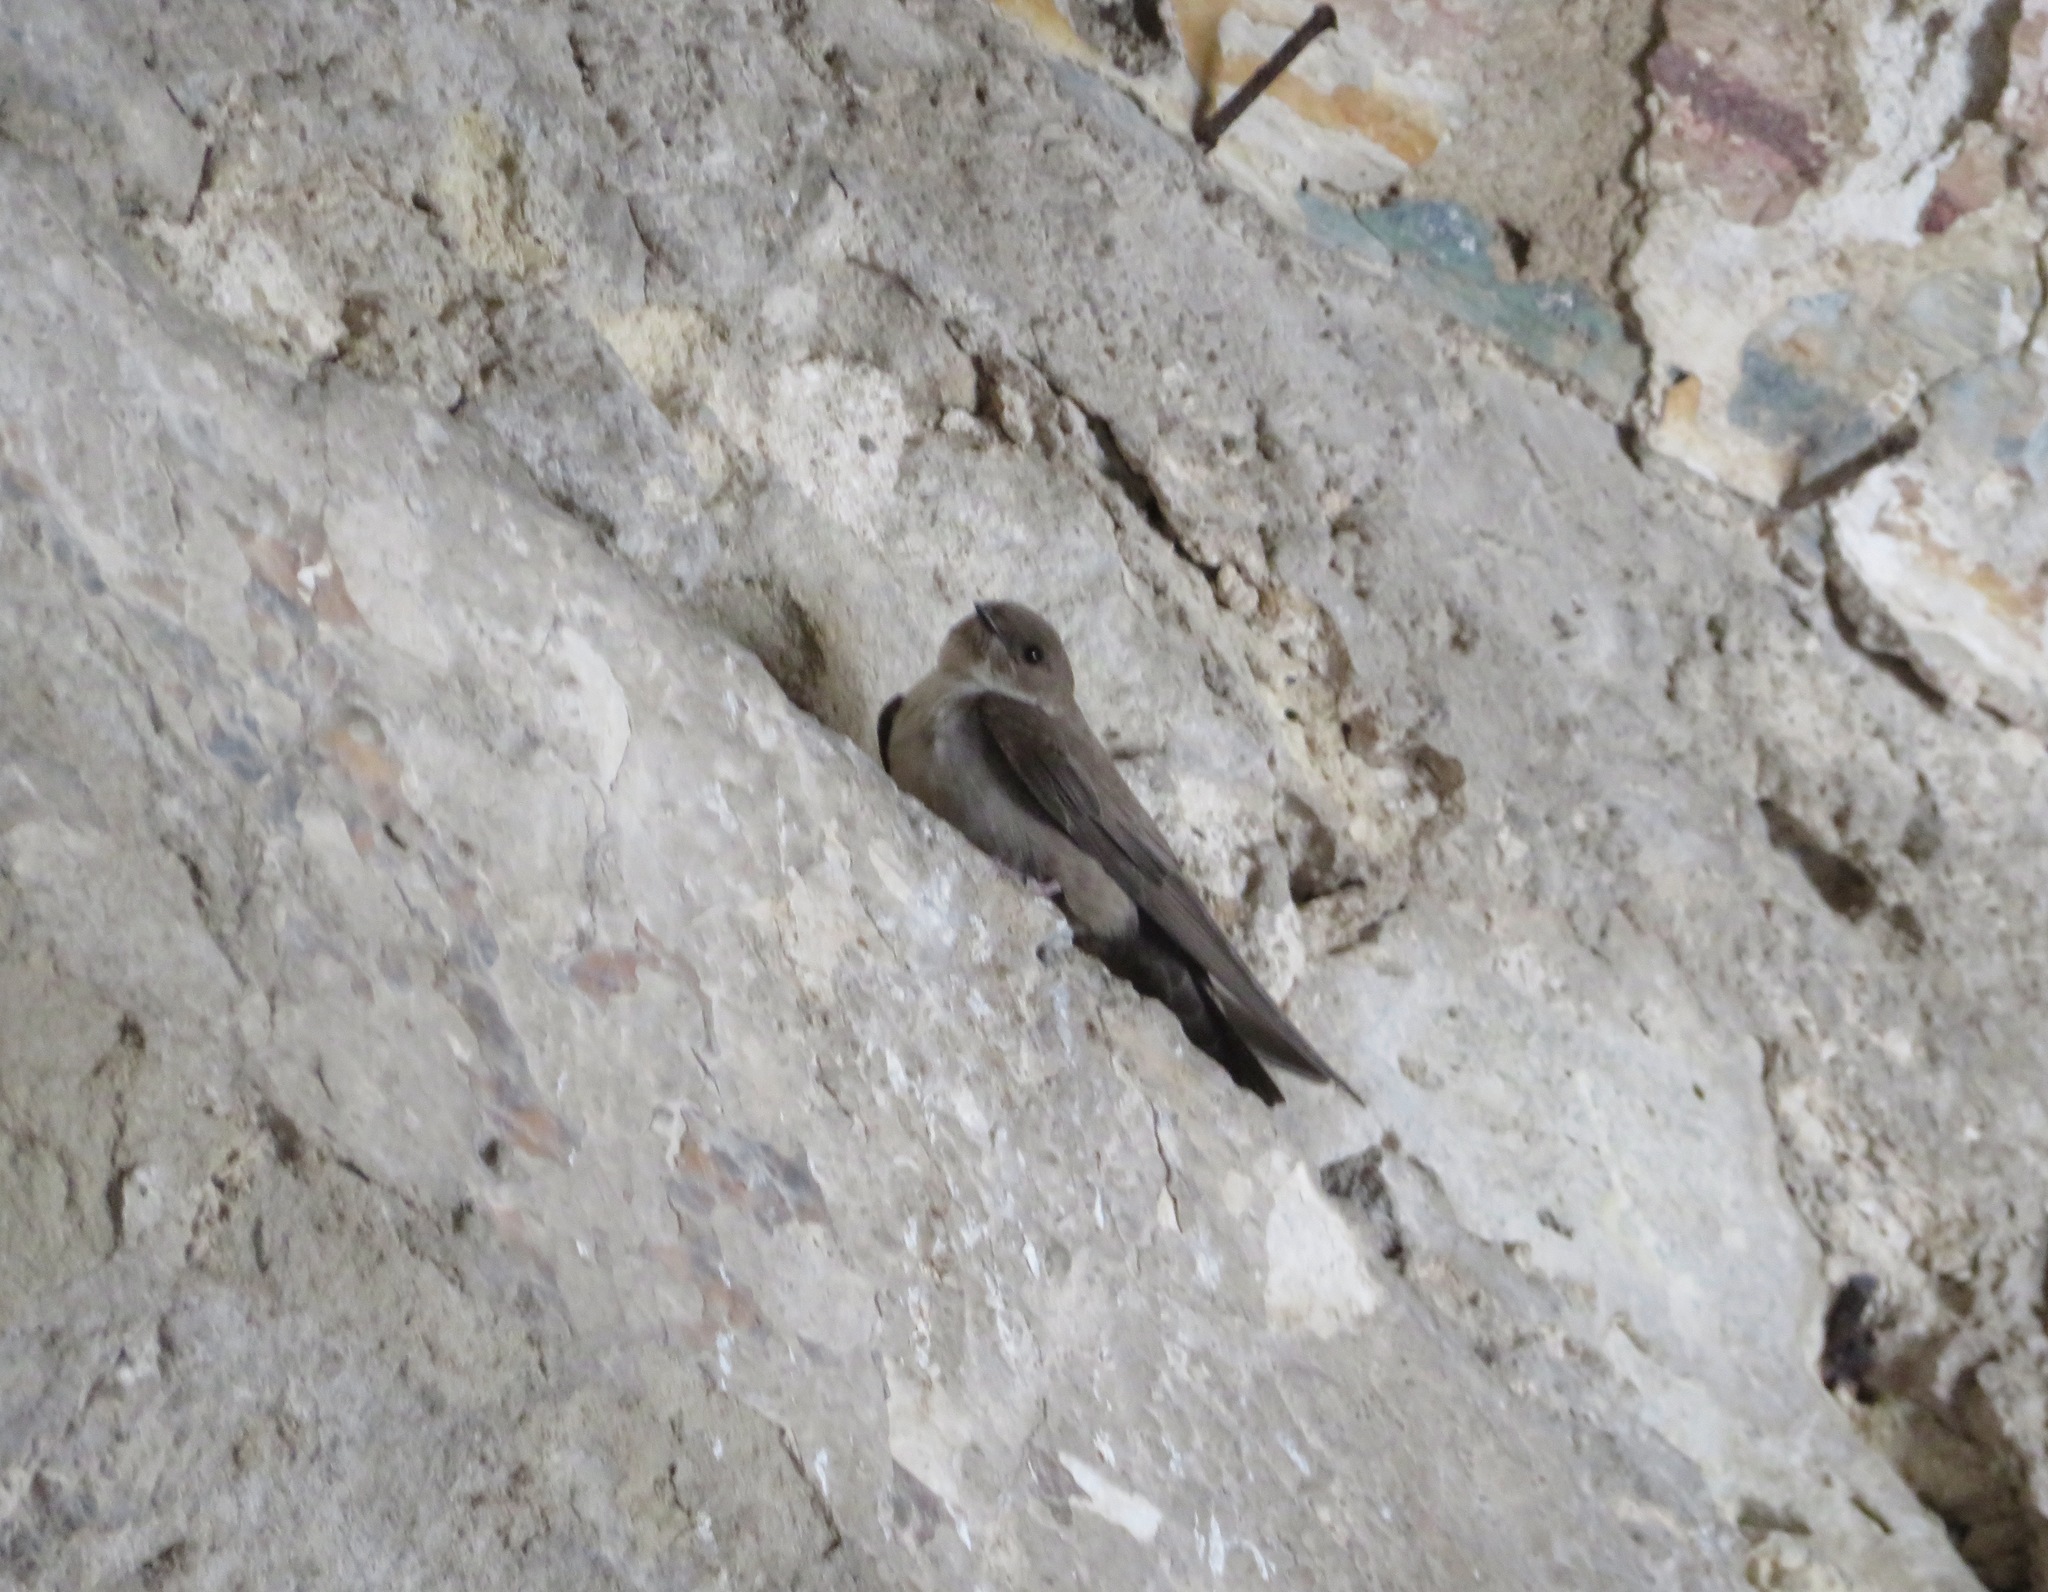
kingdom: Animalia
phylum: Chordata
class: Aves
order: Passeriformes
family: Hirundinidae
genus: Ptyonoprogne
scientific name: Ptyonoprogne rupestris
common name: Eurasian crag martin
